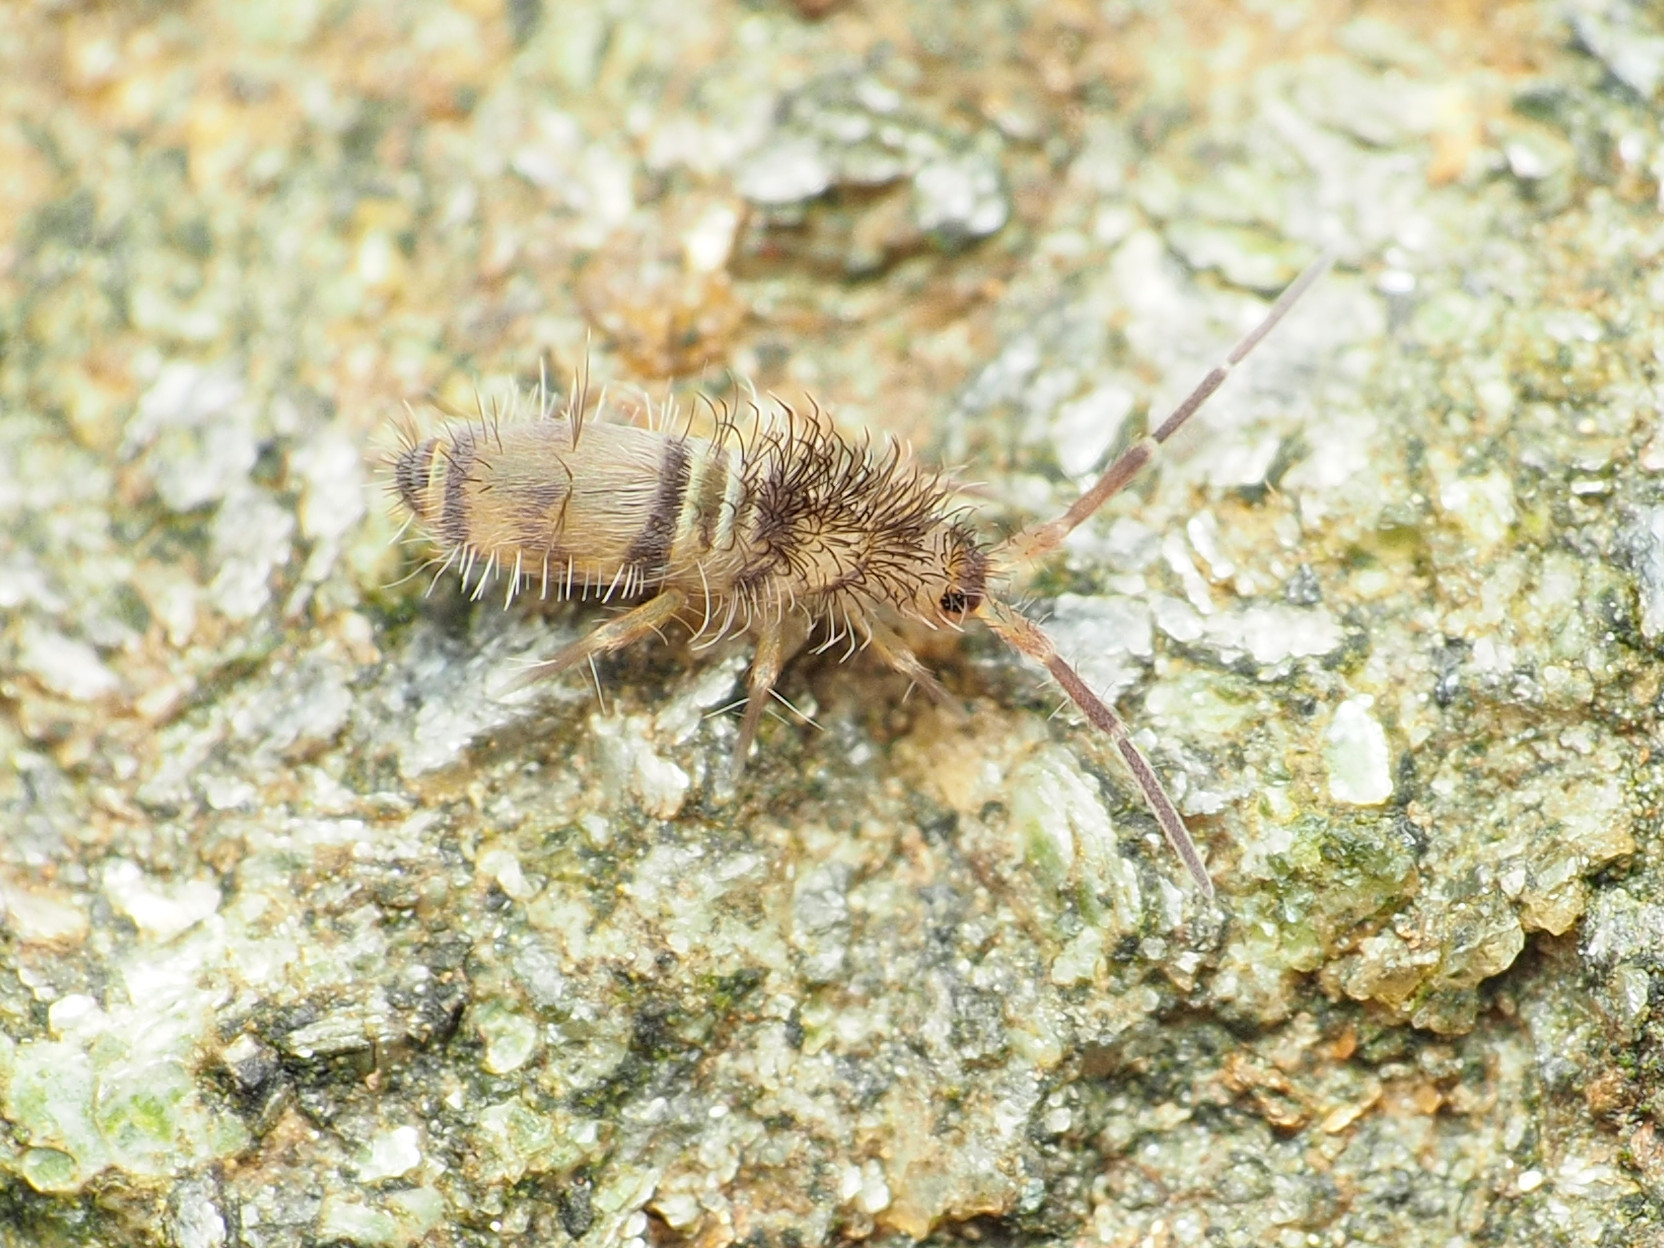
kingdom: Animalia
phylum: Arthropoda
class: Collembola
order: Entomobryomorpha
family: Entomobryidae
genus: Homidia
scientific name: Homidia sauteri
